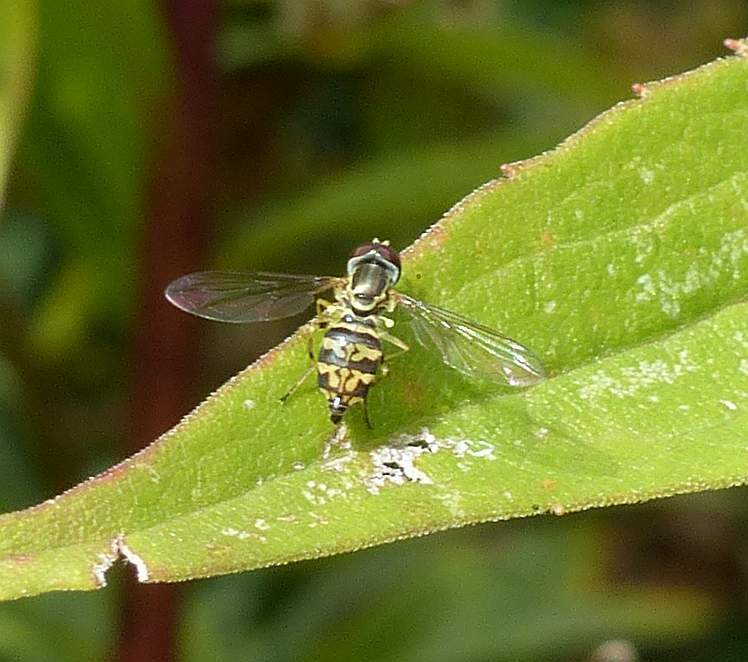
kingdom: Animalia
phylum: Arthropoda
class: Insecta
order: Diptera
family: Syrphidae
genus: Toxomerus
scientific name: Toxomerus geminatus
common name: Eastern calligrapher
